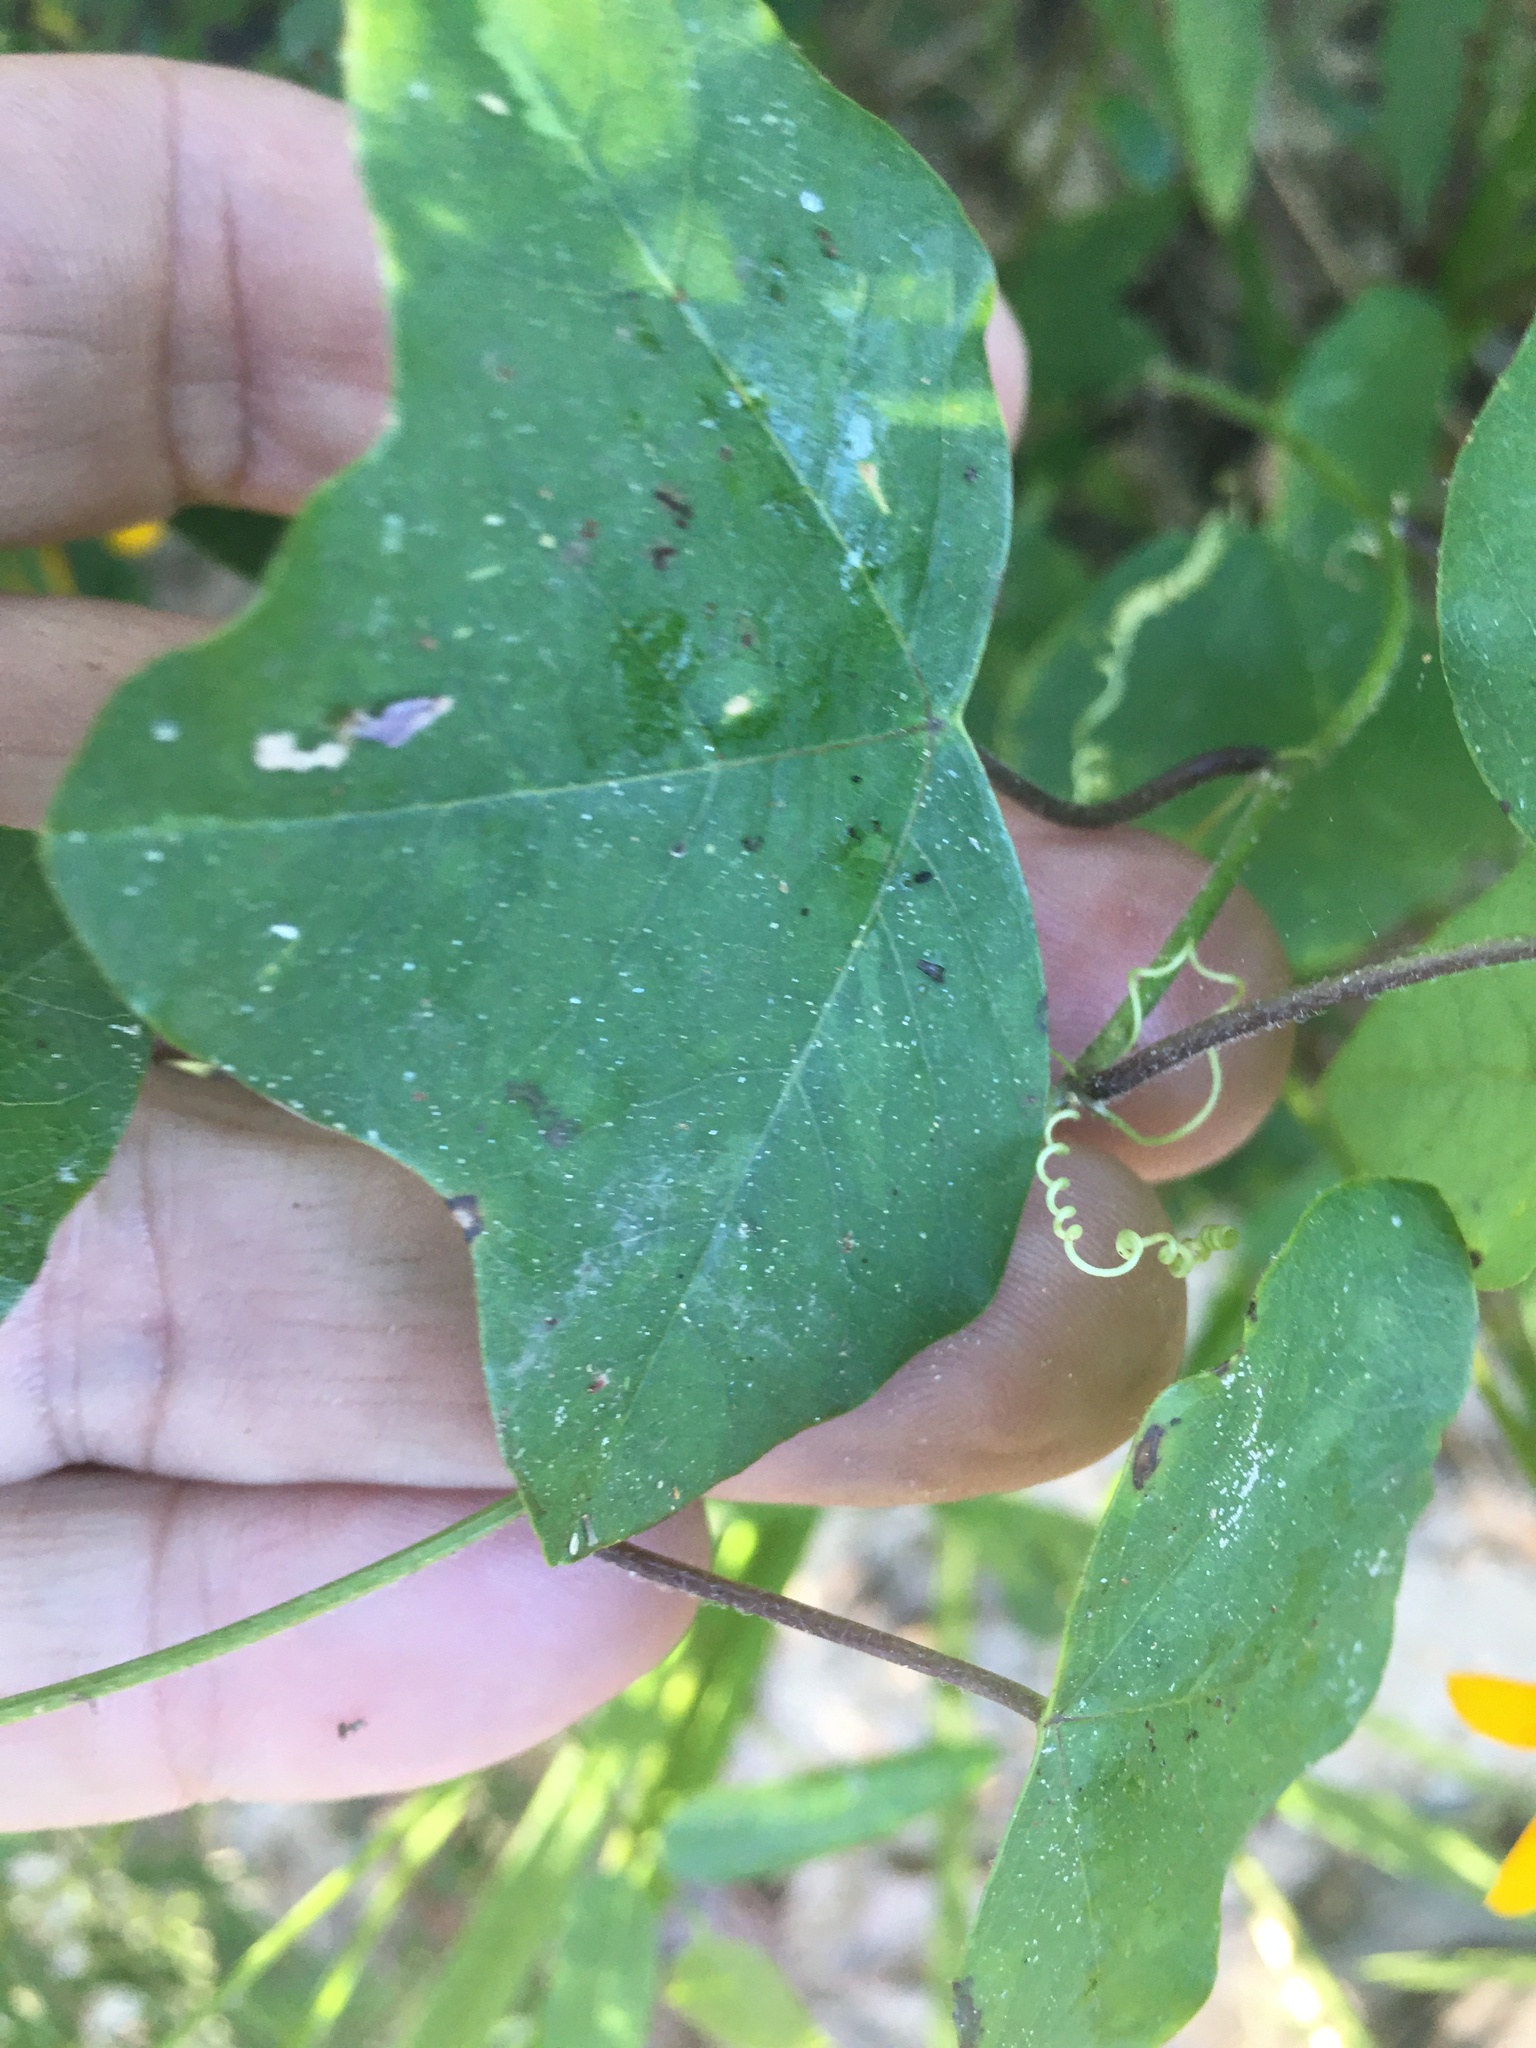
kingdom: Plantae
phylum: Tracheophyta
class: Magnoliopsida
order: Malpighiales
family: Passifloraceae
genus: Passiflora
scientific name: Passiflora lutea
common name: Yellow passionflower
